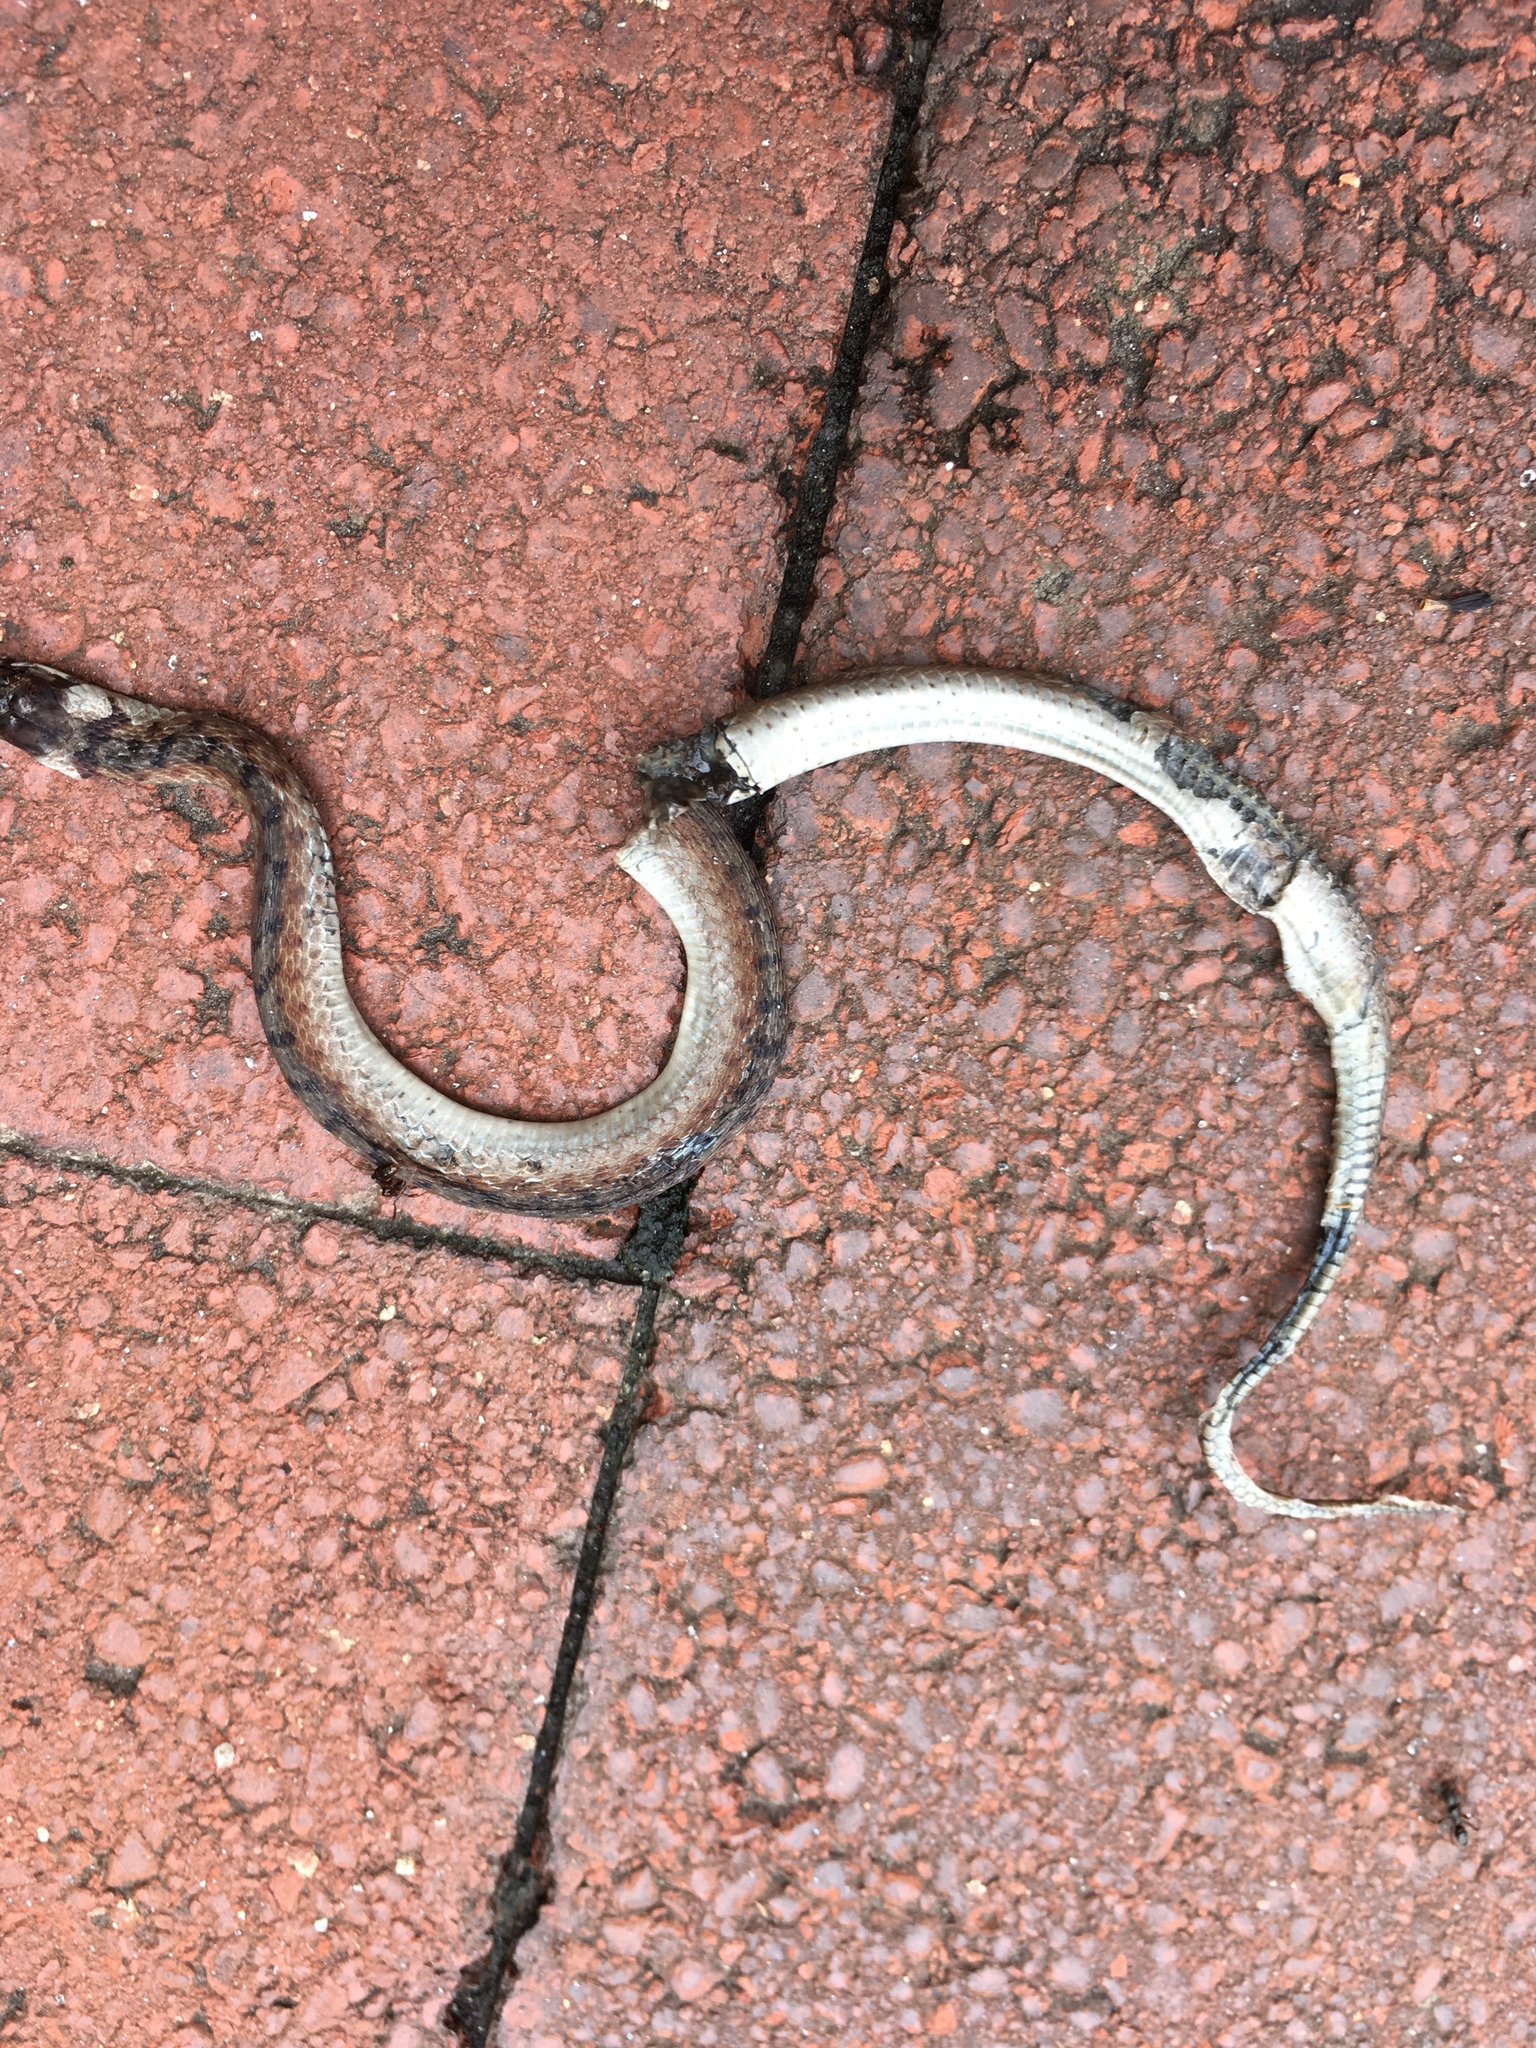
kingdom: Animalia
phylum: Chordata
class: Squamata
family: Colubridae
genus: Storeria
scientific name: Storeria dekayi
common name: (dekay’s) brown snake
